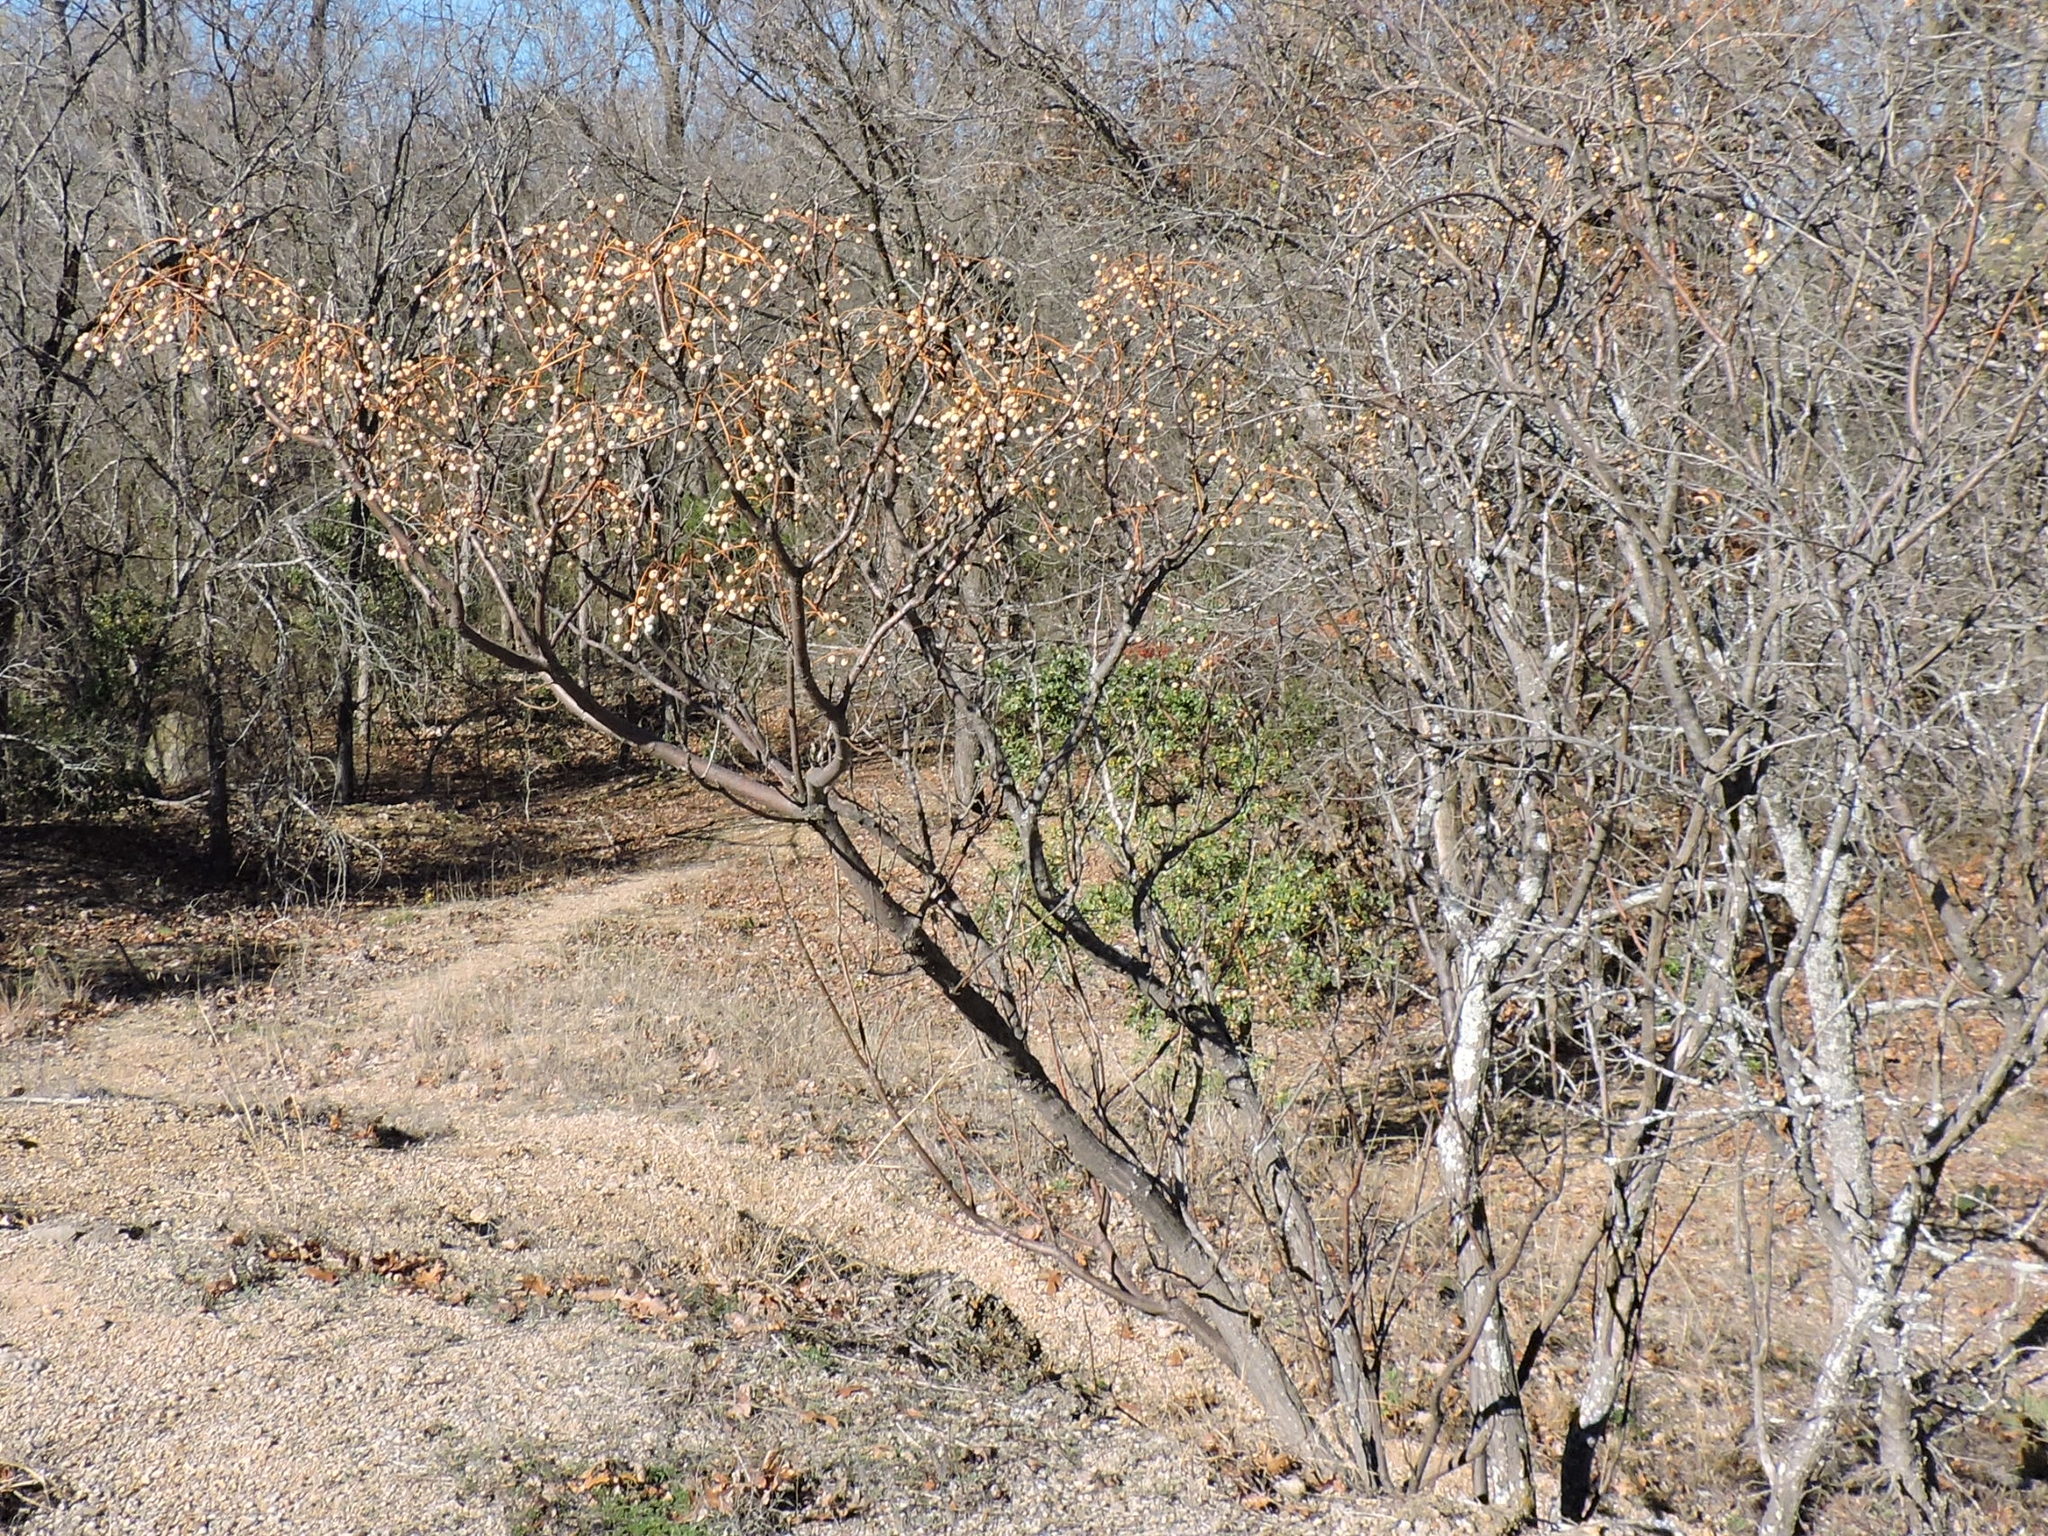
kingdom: Plantae
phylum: Tracheophyta
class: Magnoliopsida
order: Sapindales
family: Meliaceae
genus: Melia
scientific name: Melia azedarach
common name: Chinaberrytree
